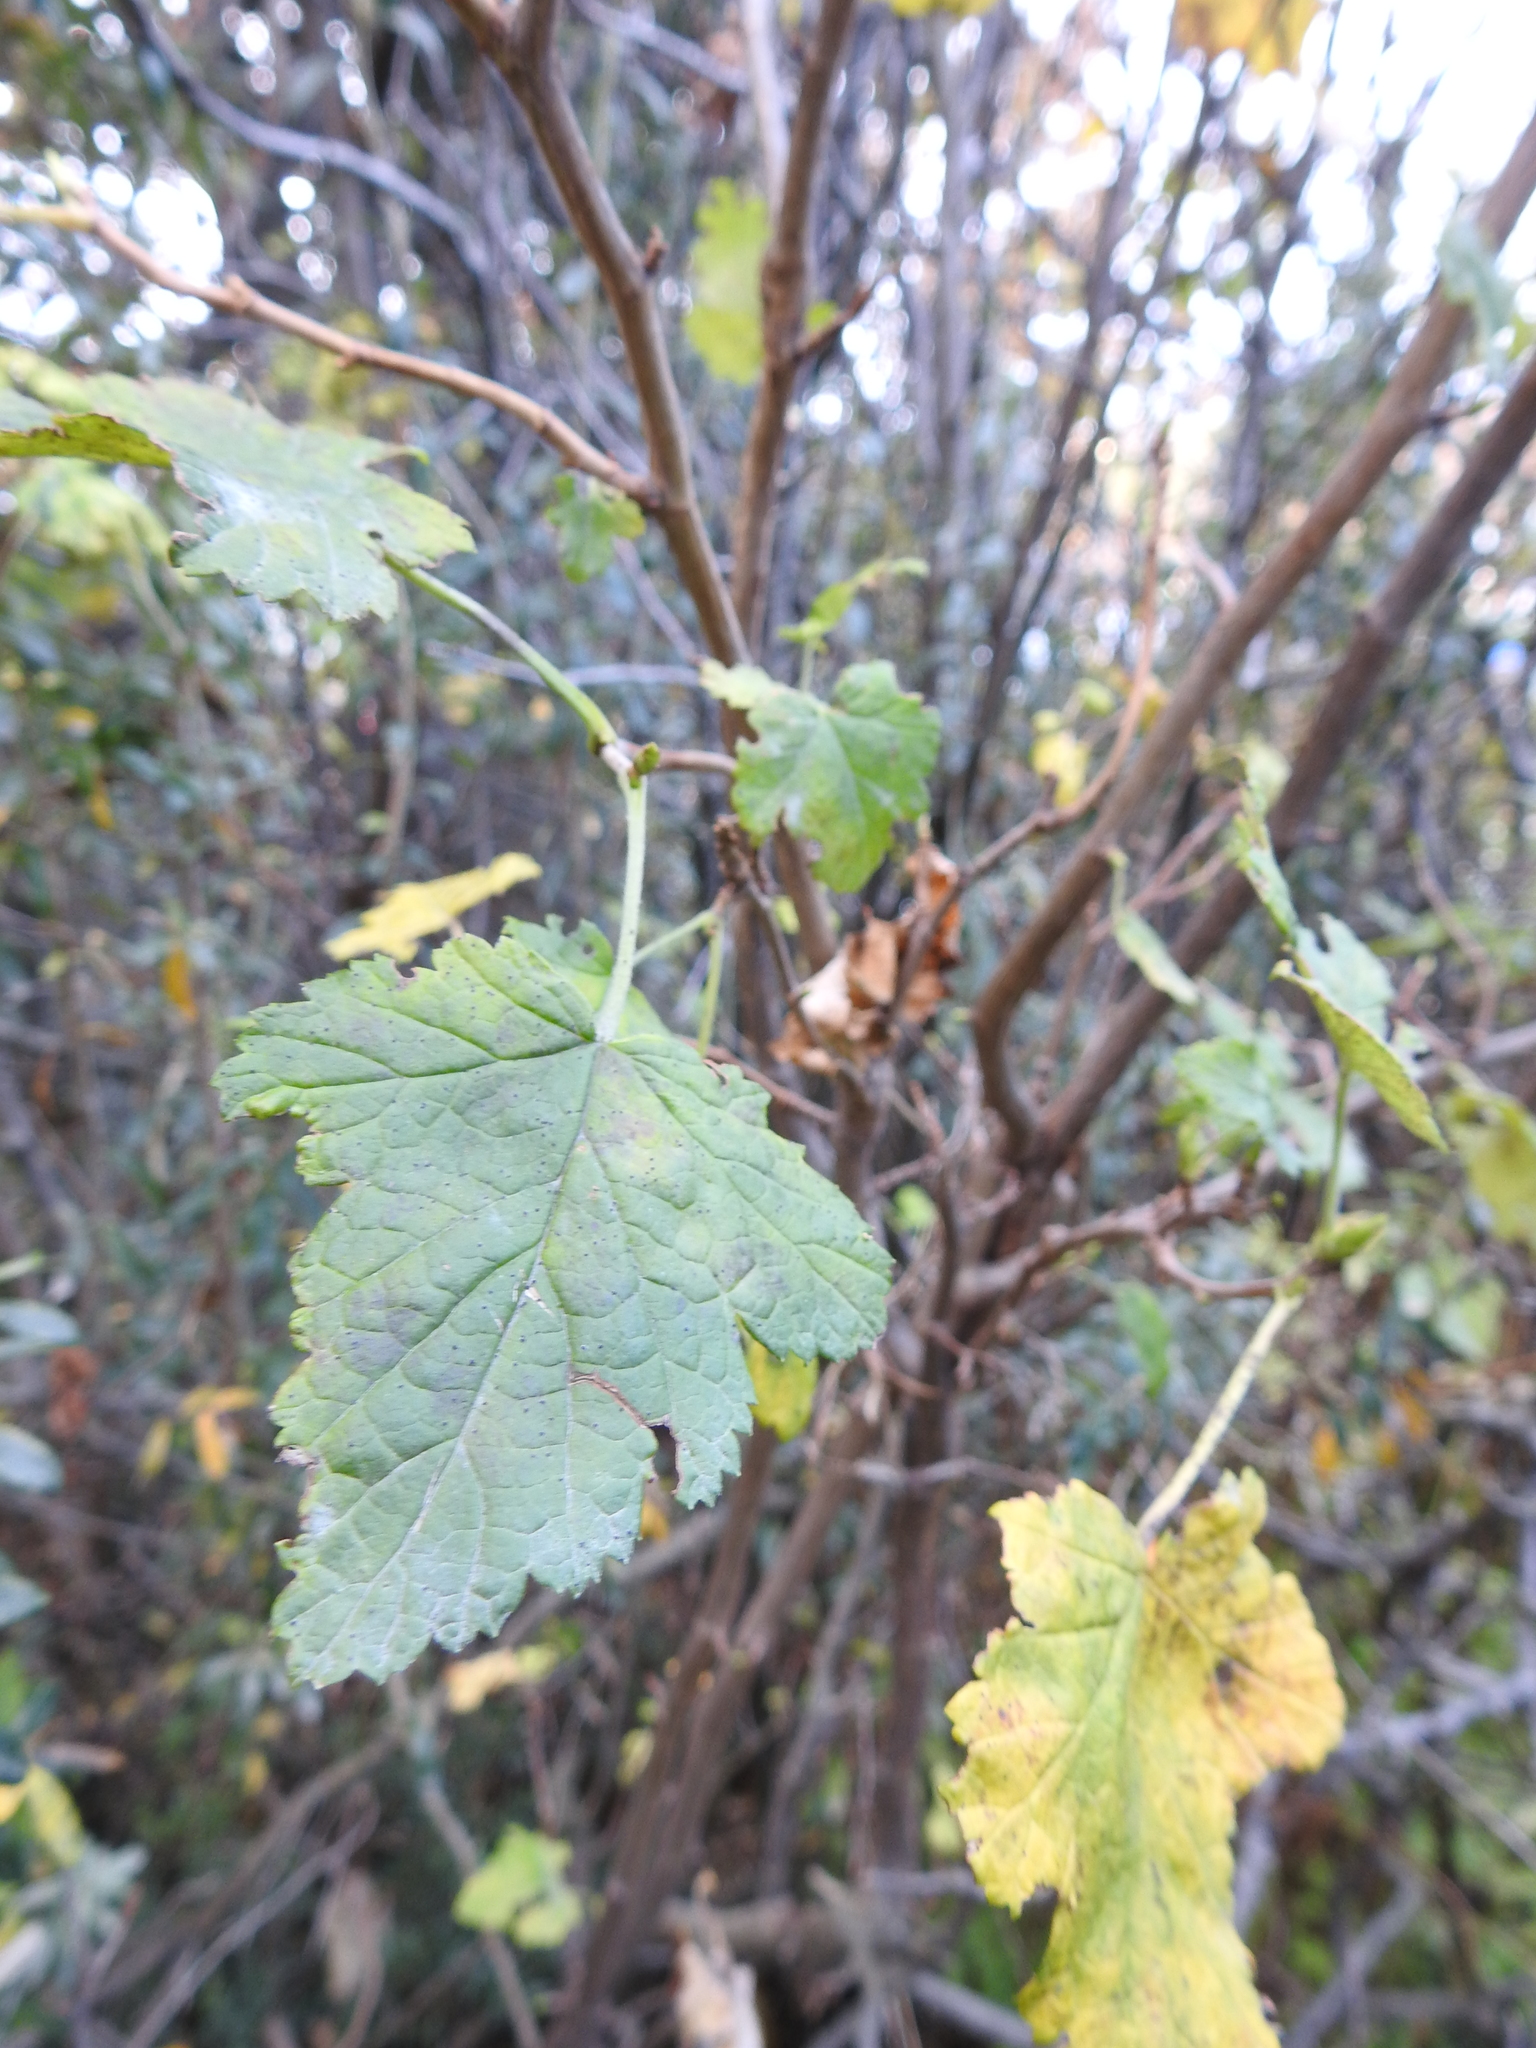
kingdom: Plantae
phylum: Tracheophyta
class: Magnoliopsida
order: Saxifragales
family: Grossulariaceae
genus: Ribes
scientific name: Ribes magellanicum
